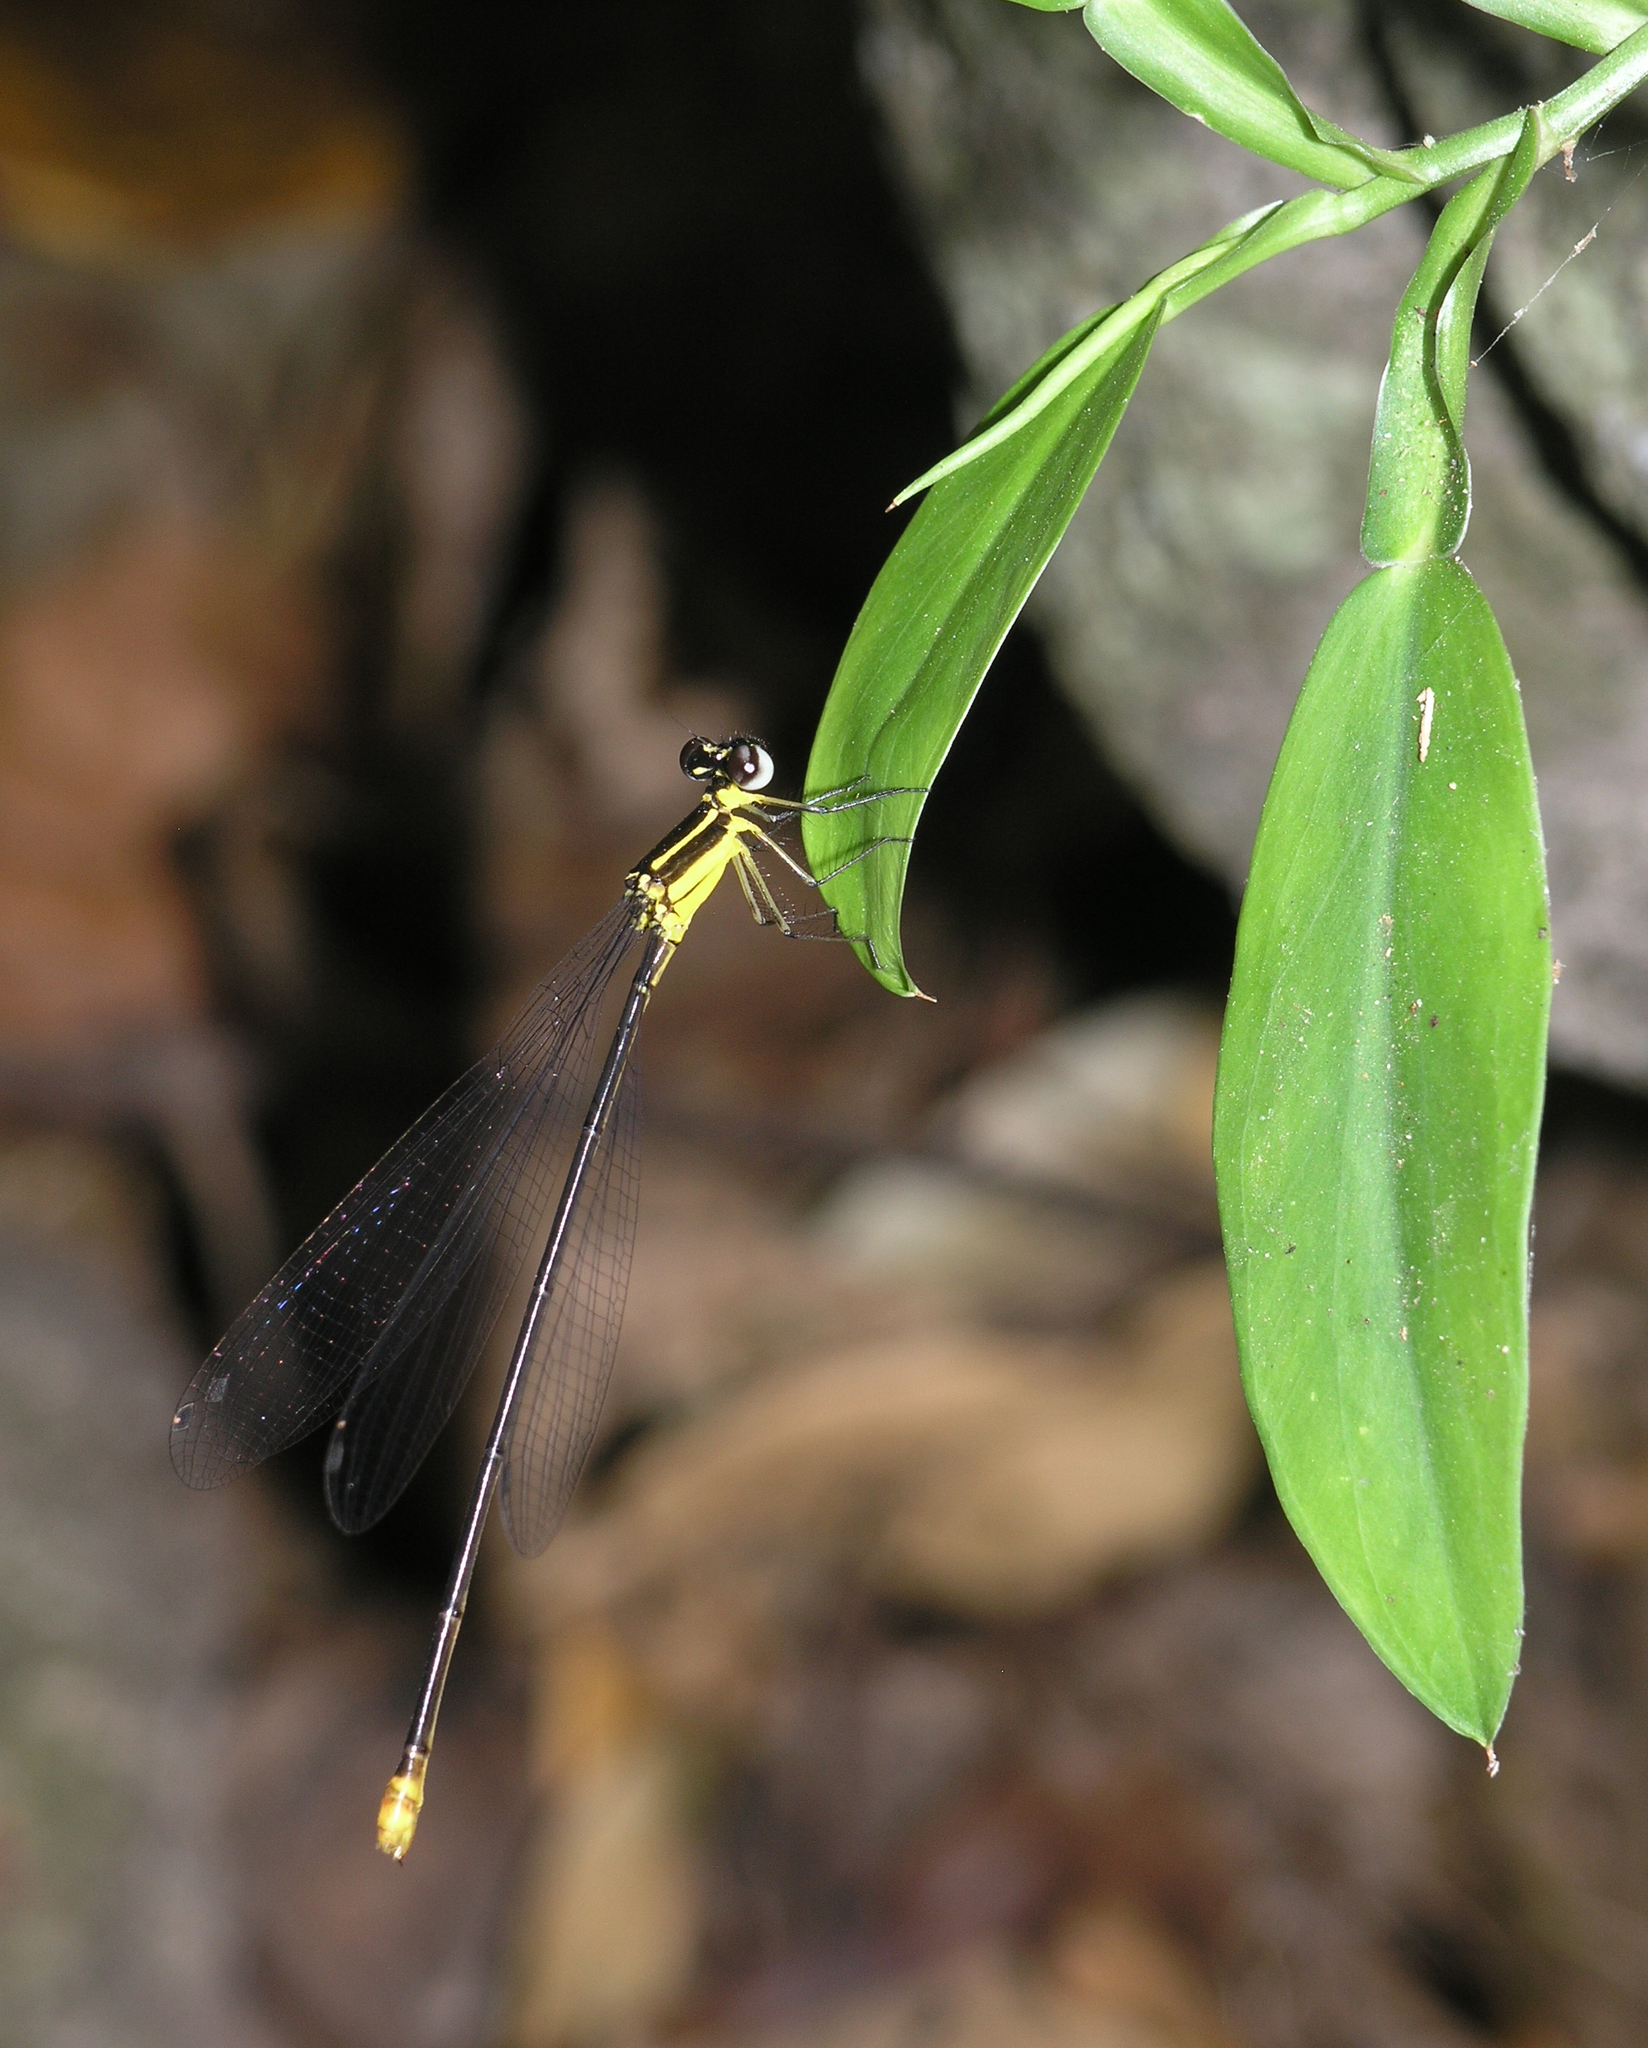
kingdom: Animalia
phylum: Arthropoda
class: Insecta
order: Odonata
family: Platycnemididae
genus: Coeliccia
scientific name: Coeliccia yamasakii
